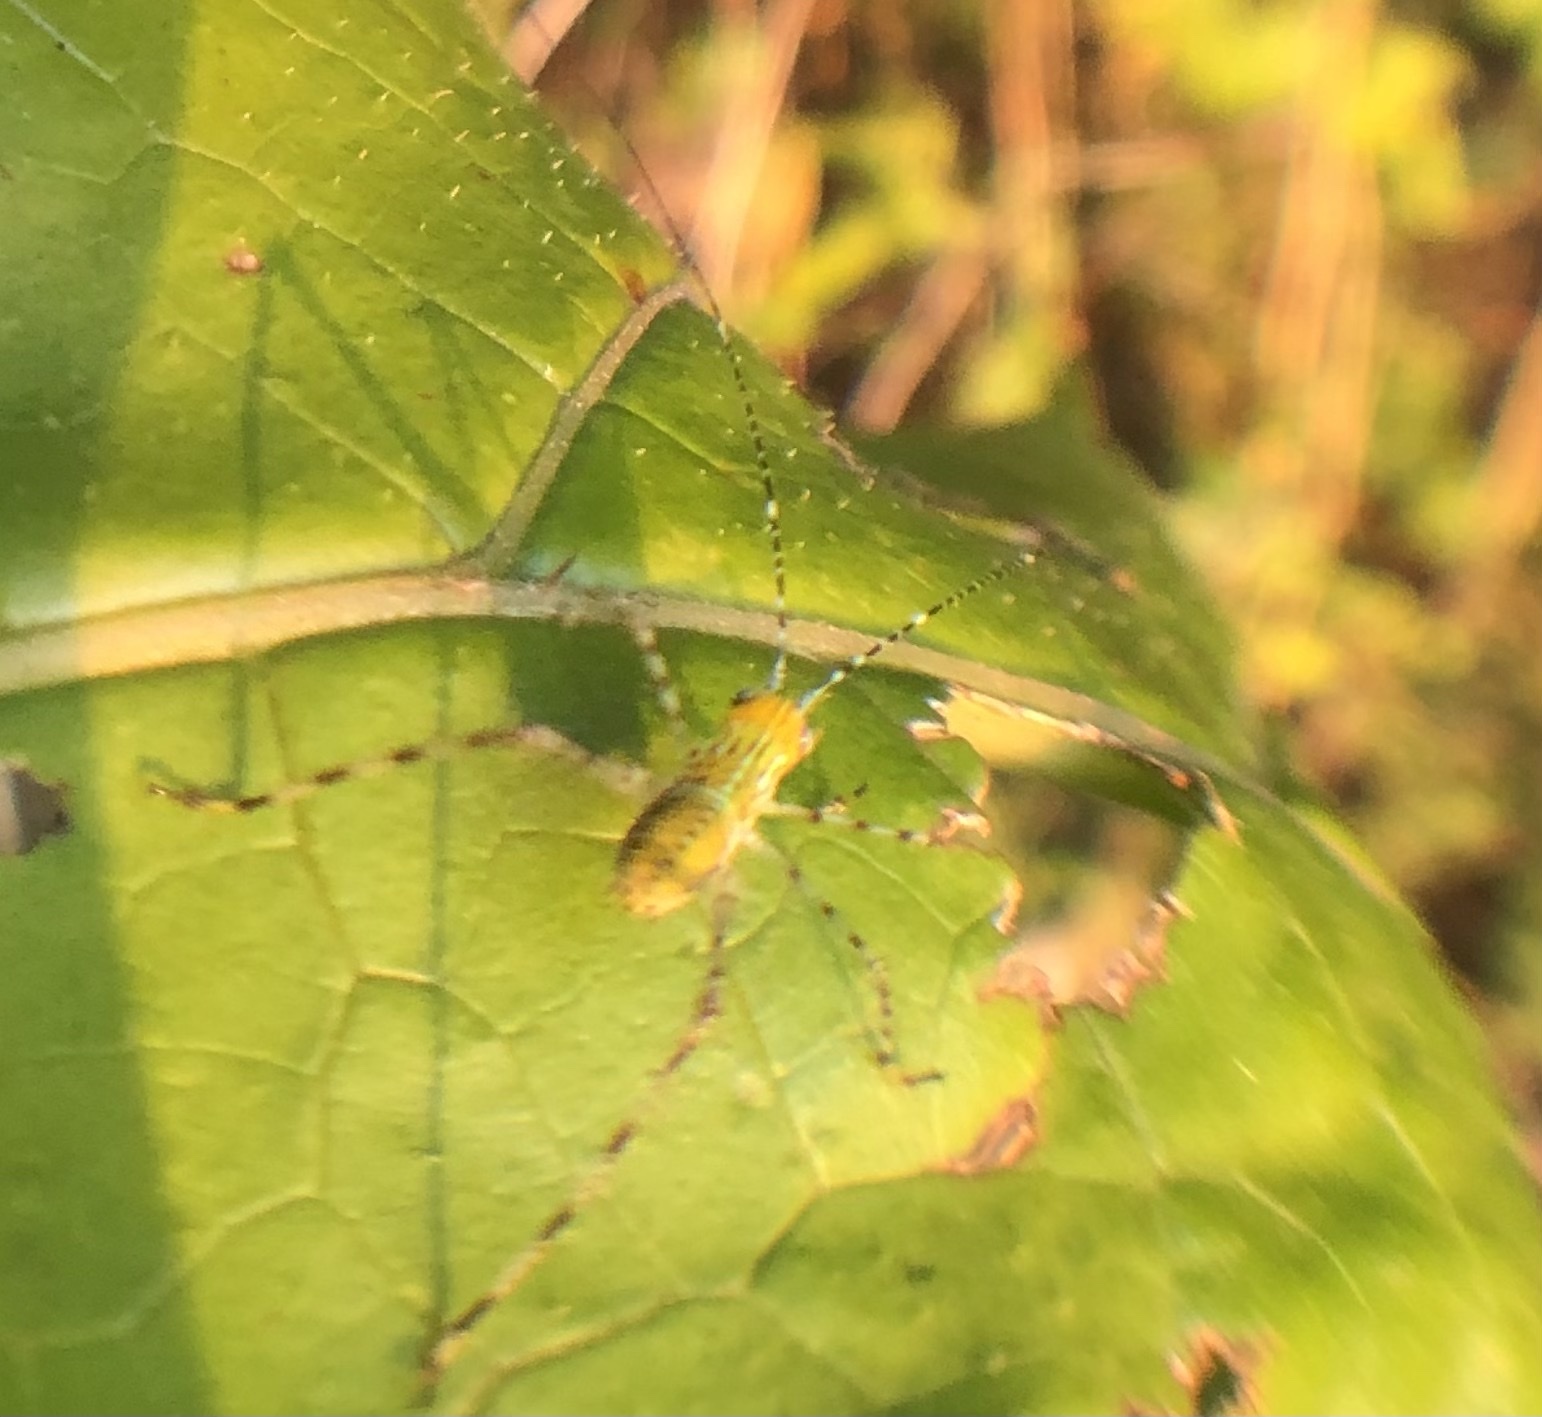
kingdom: Animalia
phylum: Arthropoda
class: Insecta
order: Orthoptera
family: Tettigoniidae
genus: Stilpnochlora
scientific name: Stilpnochlora couloniana
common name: Giant katydid
